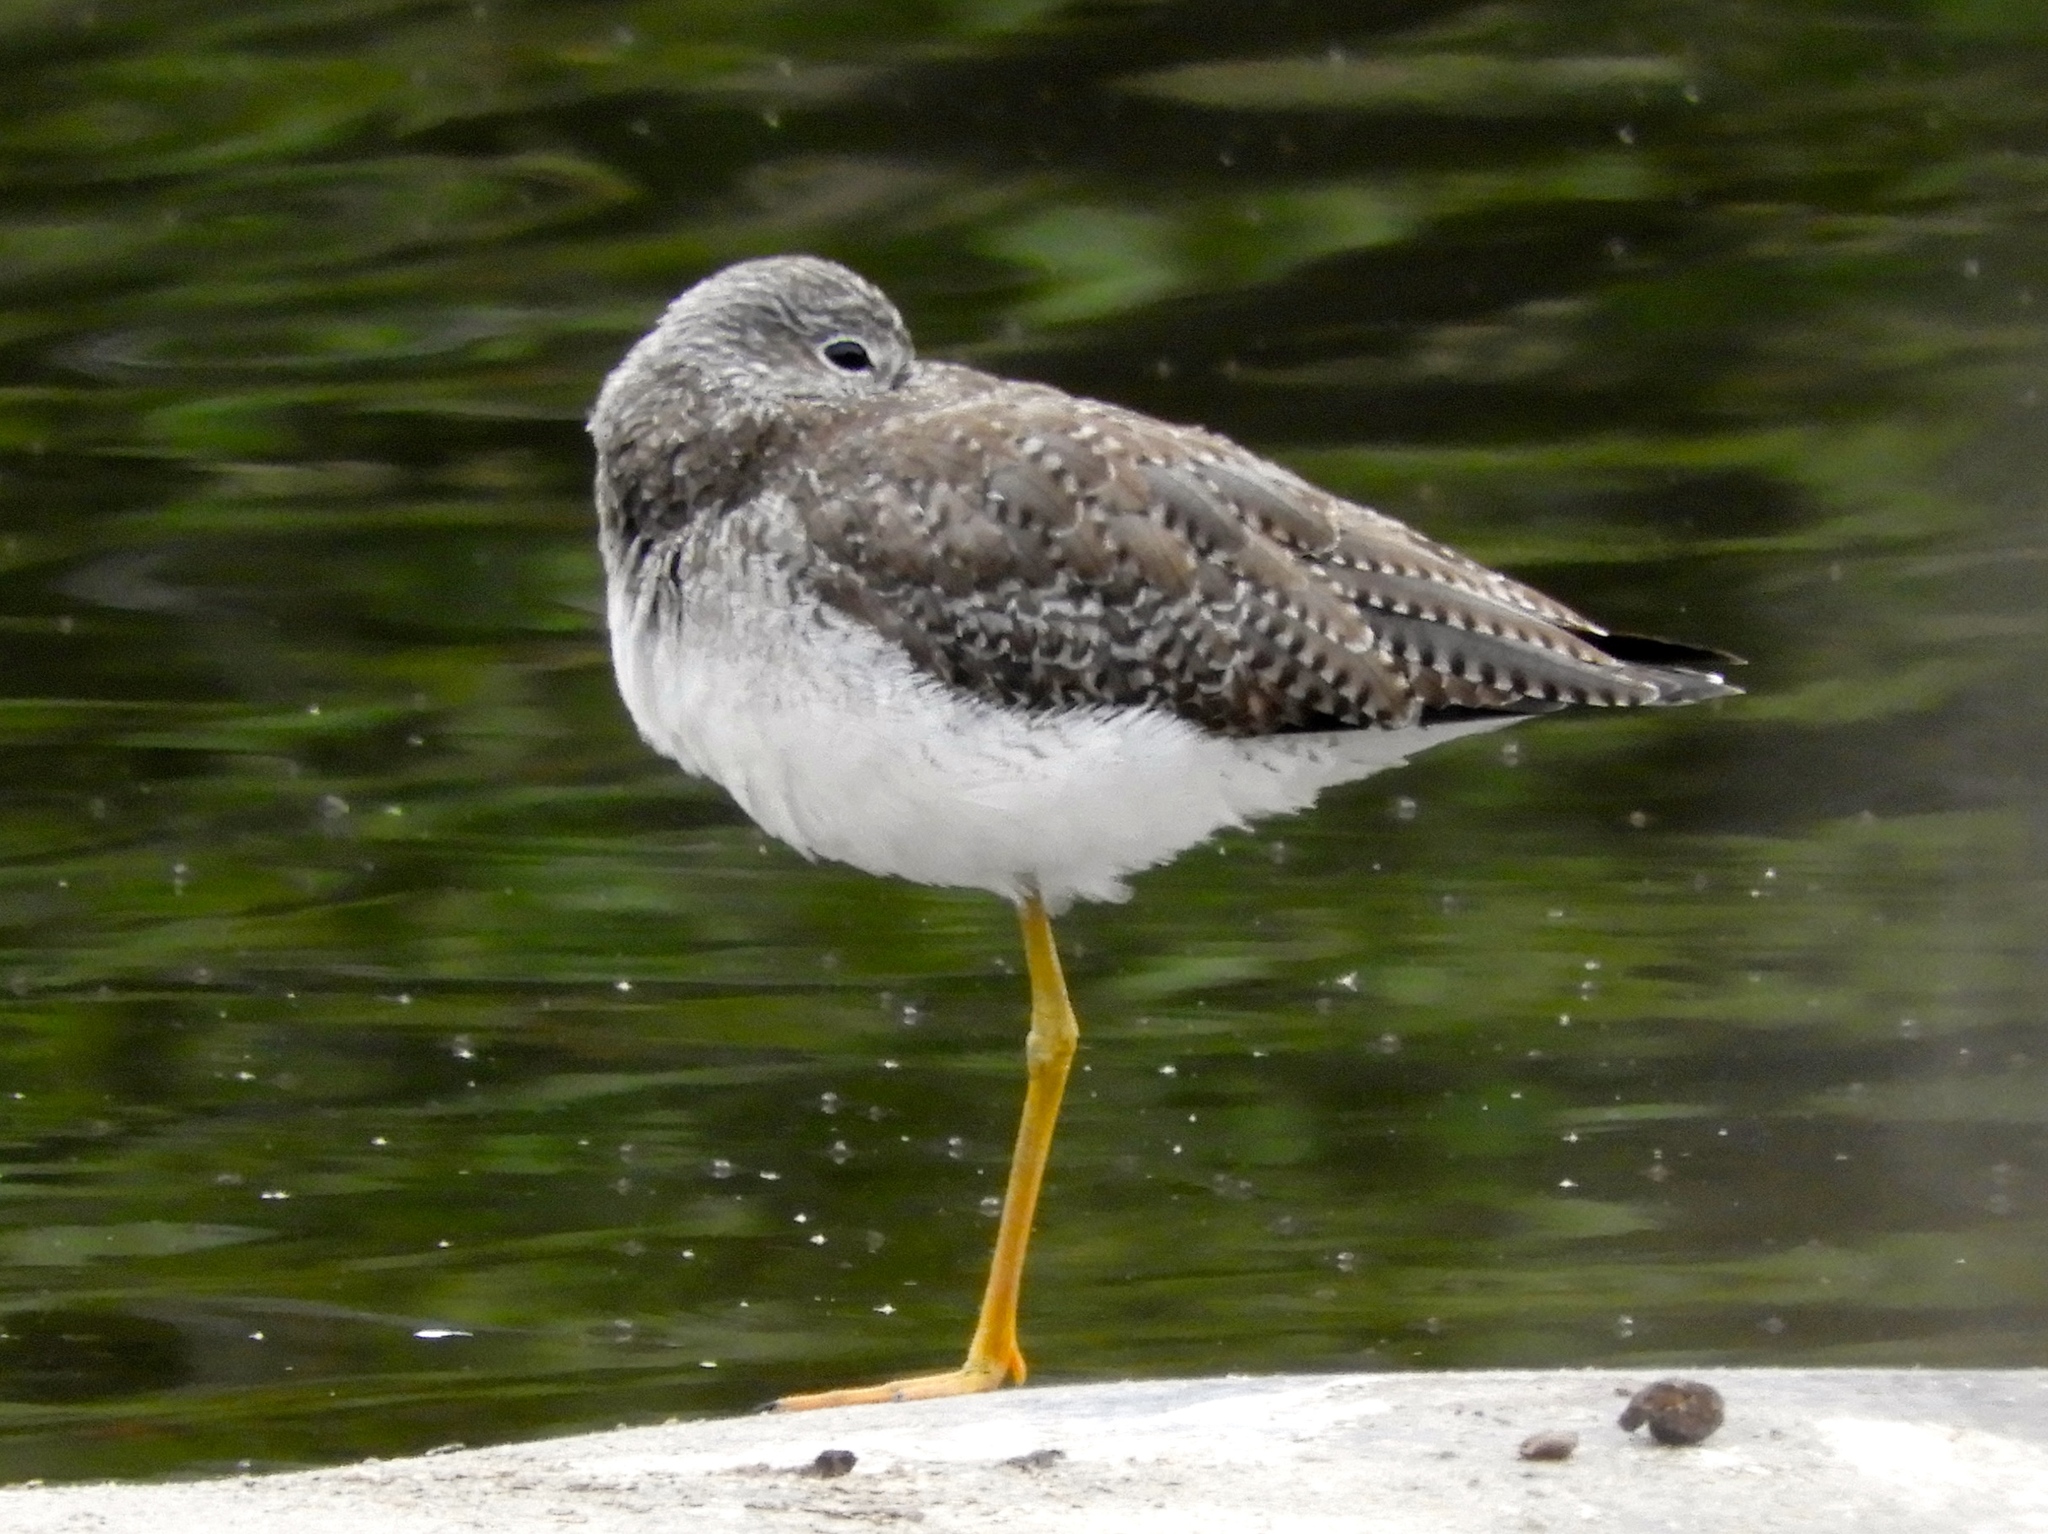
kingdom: Animalia
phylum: Chordata
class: Aves
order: Charadriiformes
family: Scolopacidae
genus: Tringa
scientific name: Tringa melanoleuca
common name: Greater yellowlegs
